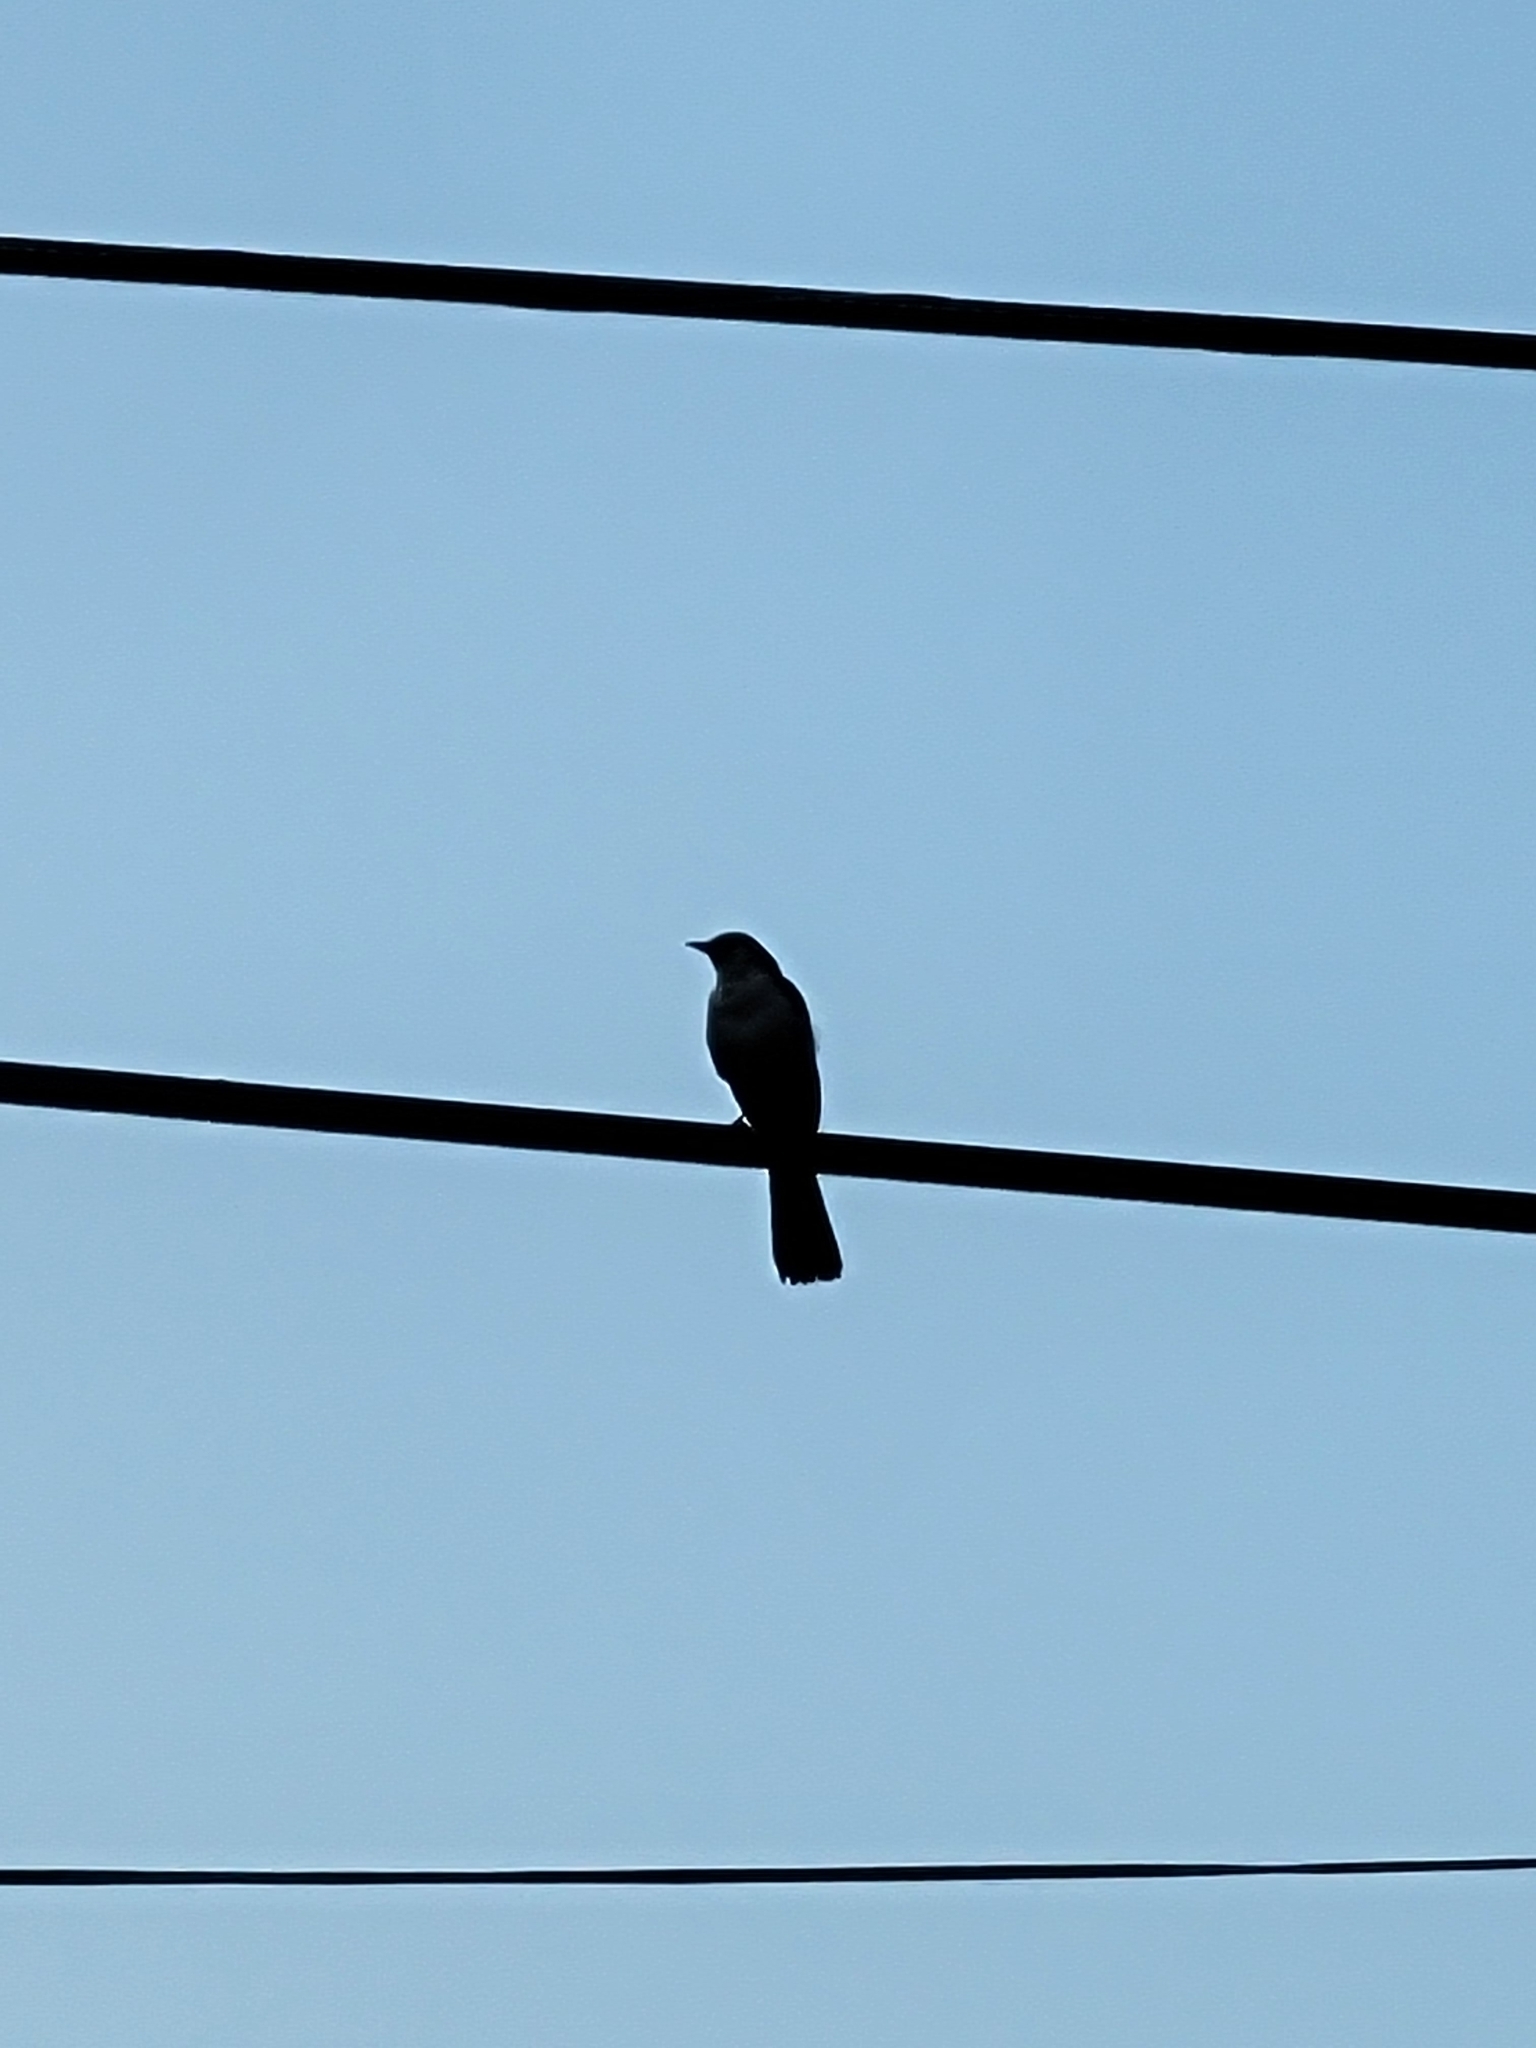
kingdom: Animalia
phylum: Chordata
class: Aves
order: Passeriformes
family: Mimidae
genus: Mimus
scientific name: Mimus polyglottos
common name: Northern mockingbird
